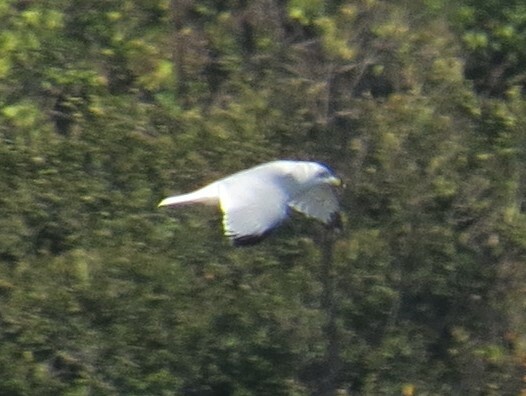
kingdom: Animalia
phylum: Chordata
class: Aves
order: Charadriiformes
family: Laridae
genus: Larus
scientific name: Larus delawarensis
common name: Ring-billed gull
